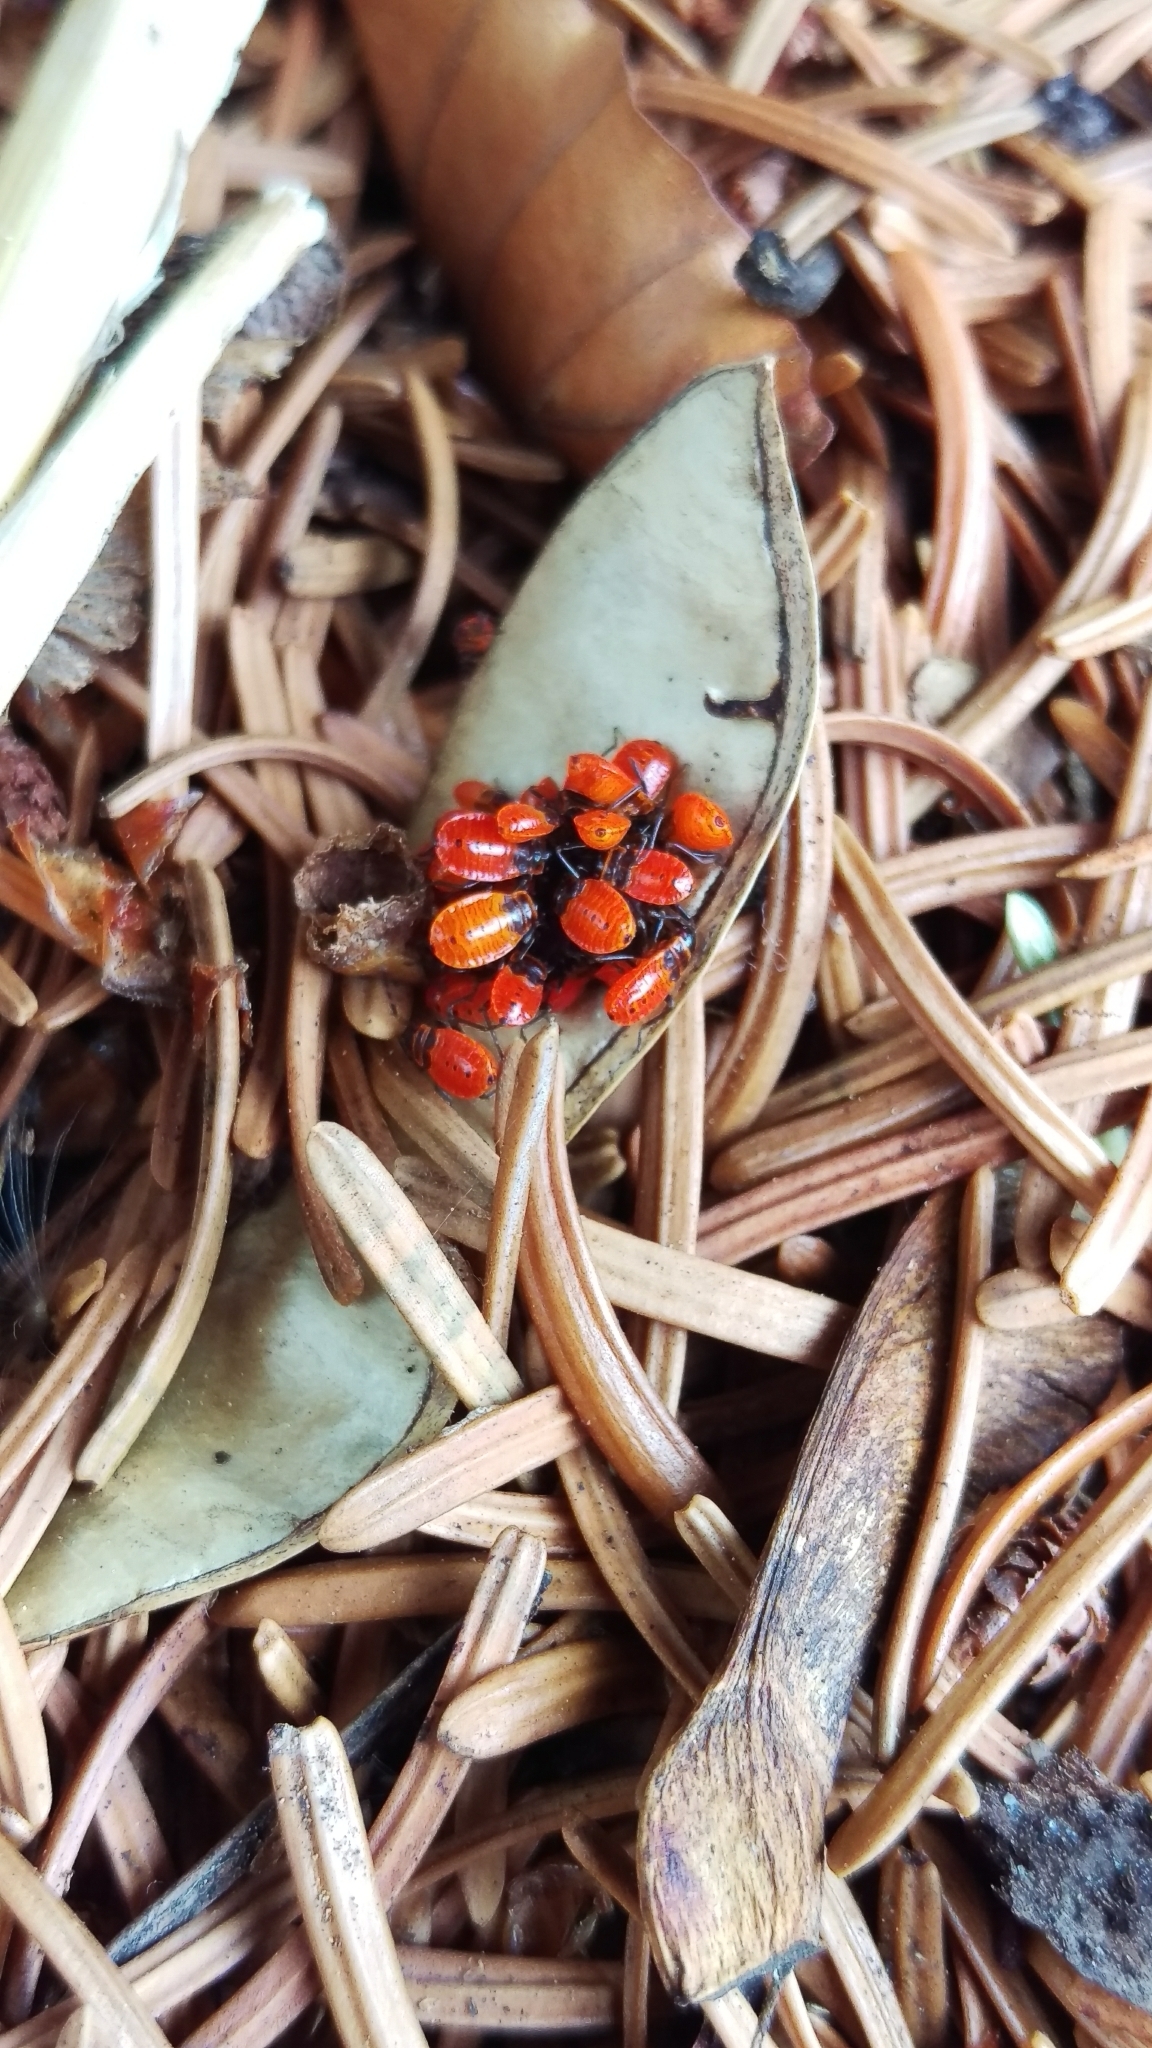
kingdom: Animalia
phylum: Arthropoda
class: Insecta
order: Hemiptera
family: Pyrrhocoridae
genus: Pyrrhocoris
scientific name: Pyrrhocoris apterus
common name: Firebug
